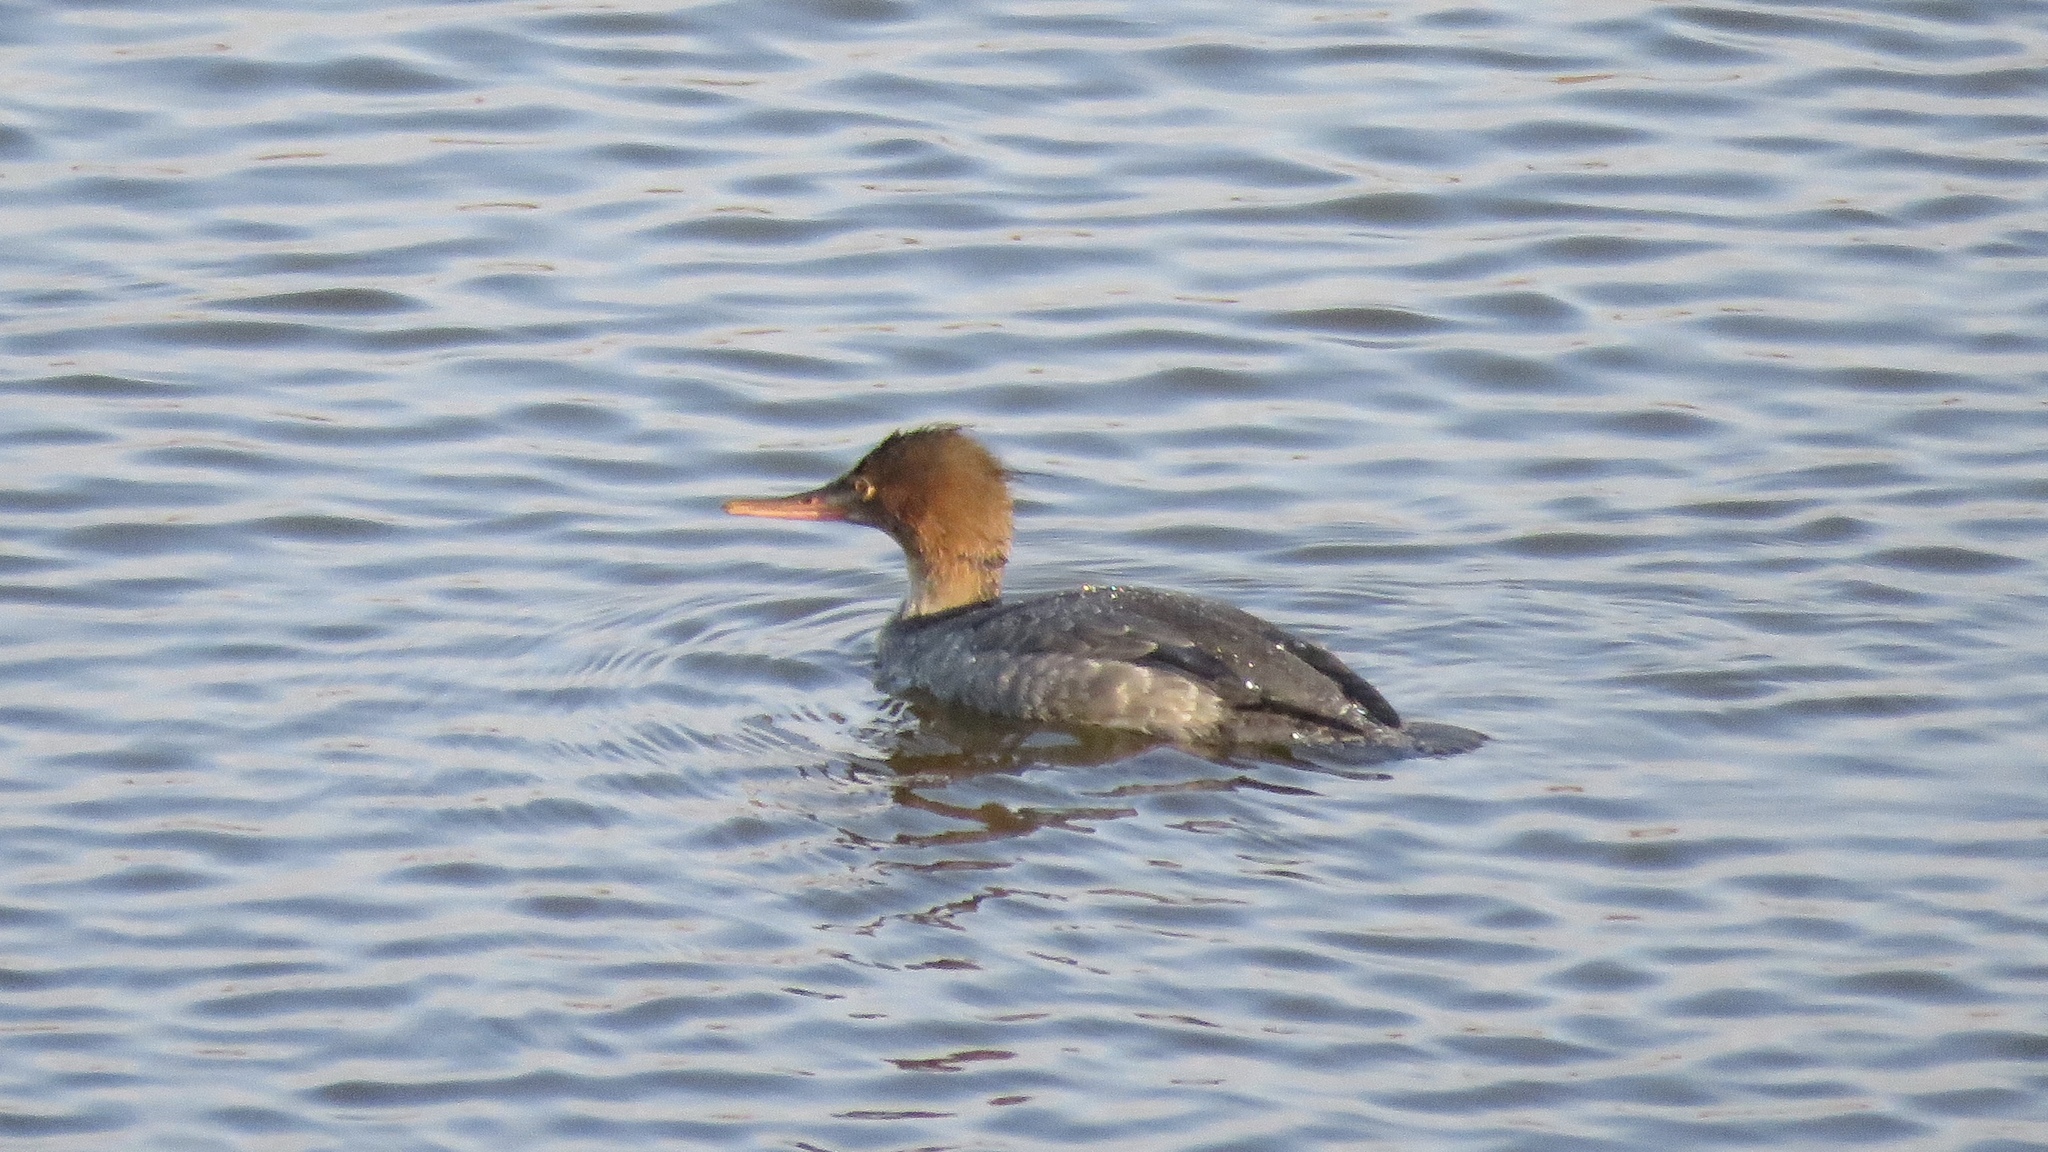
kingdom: Animalia
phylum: Chordata
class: Aves
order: Anseriformes
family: Anatidae
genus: Mergus
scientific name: Mergus serrator
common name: Red-breasted merganser
